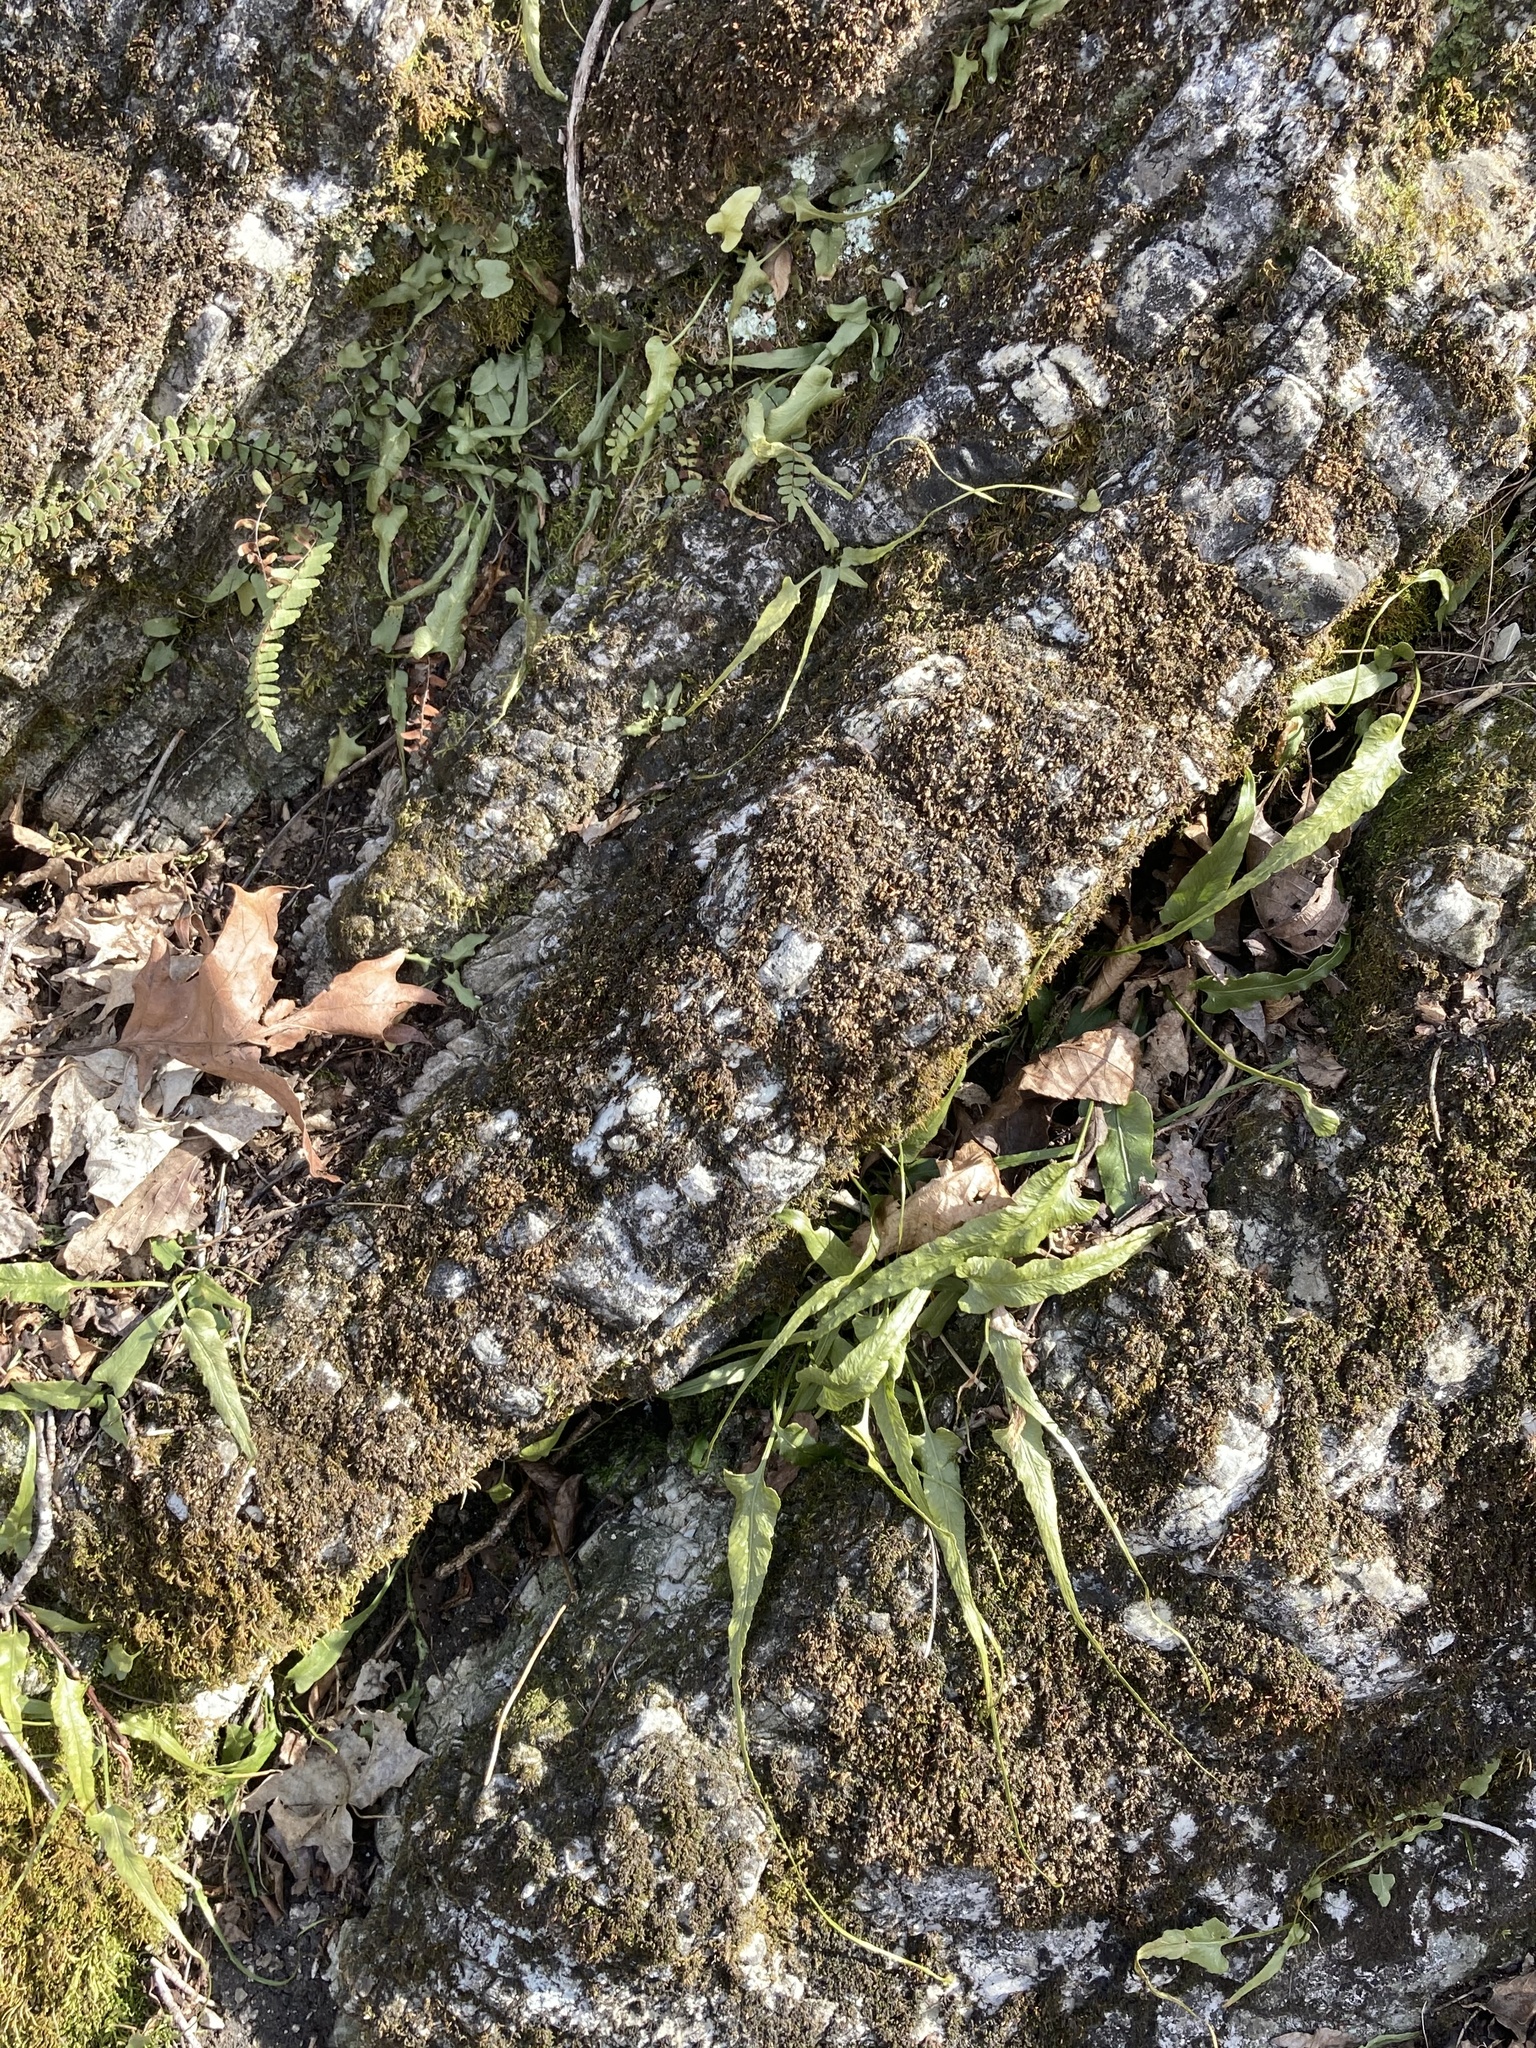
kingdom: Plantae
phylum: Tracheophyta
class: Polypodiopsida
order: Polypodiales
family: Aspleniaceae
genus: Asplenium
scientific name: Asplenium resiliens
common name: Blackstem spleenwort
